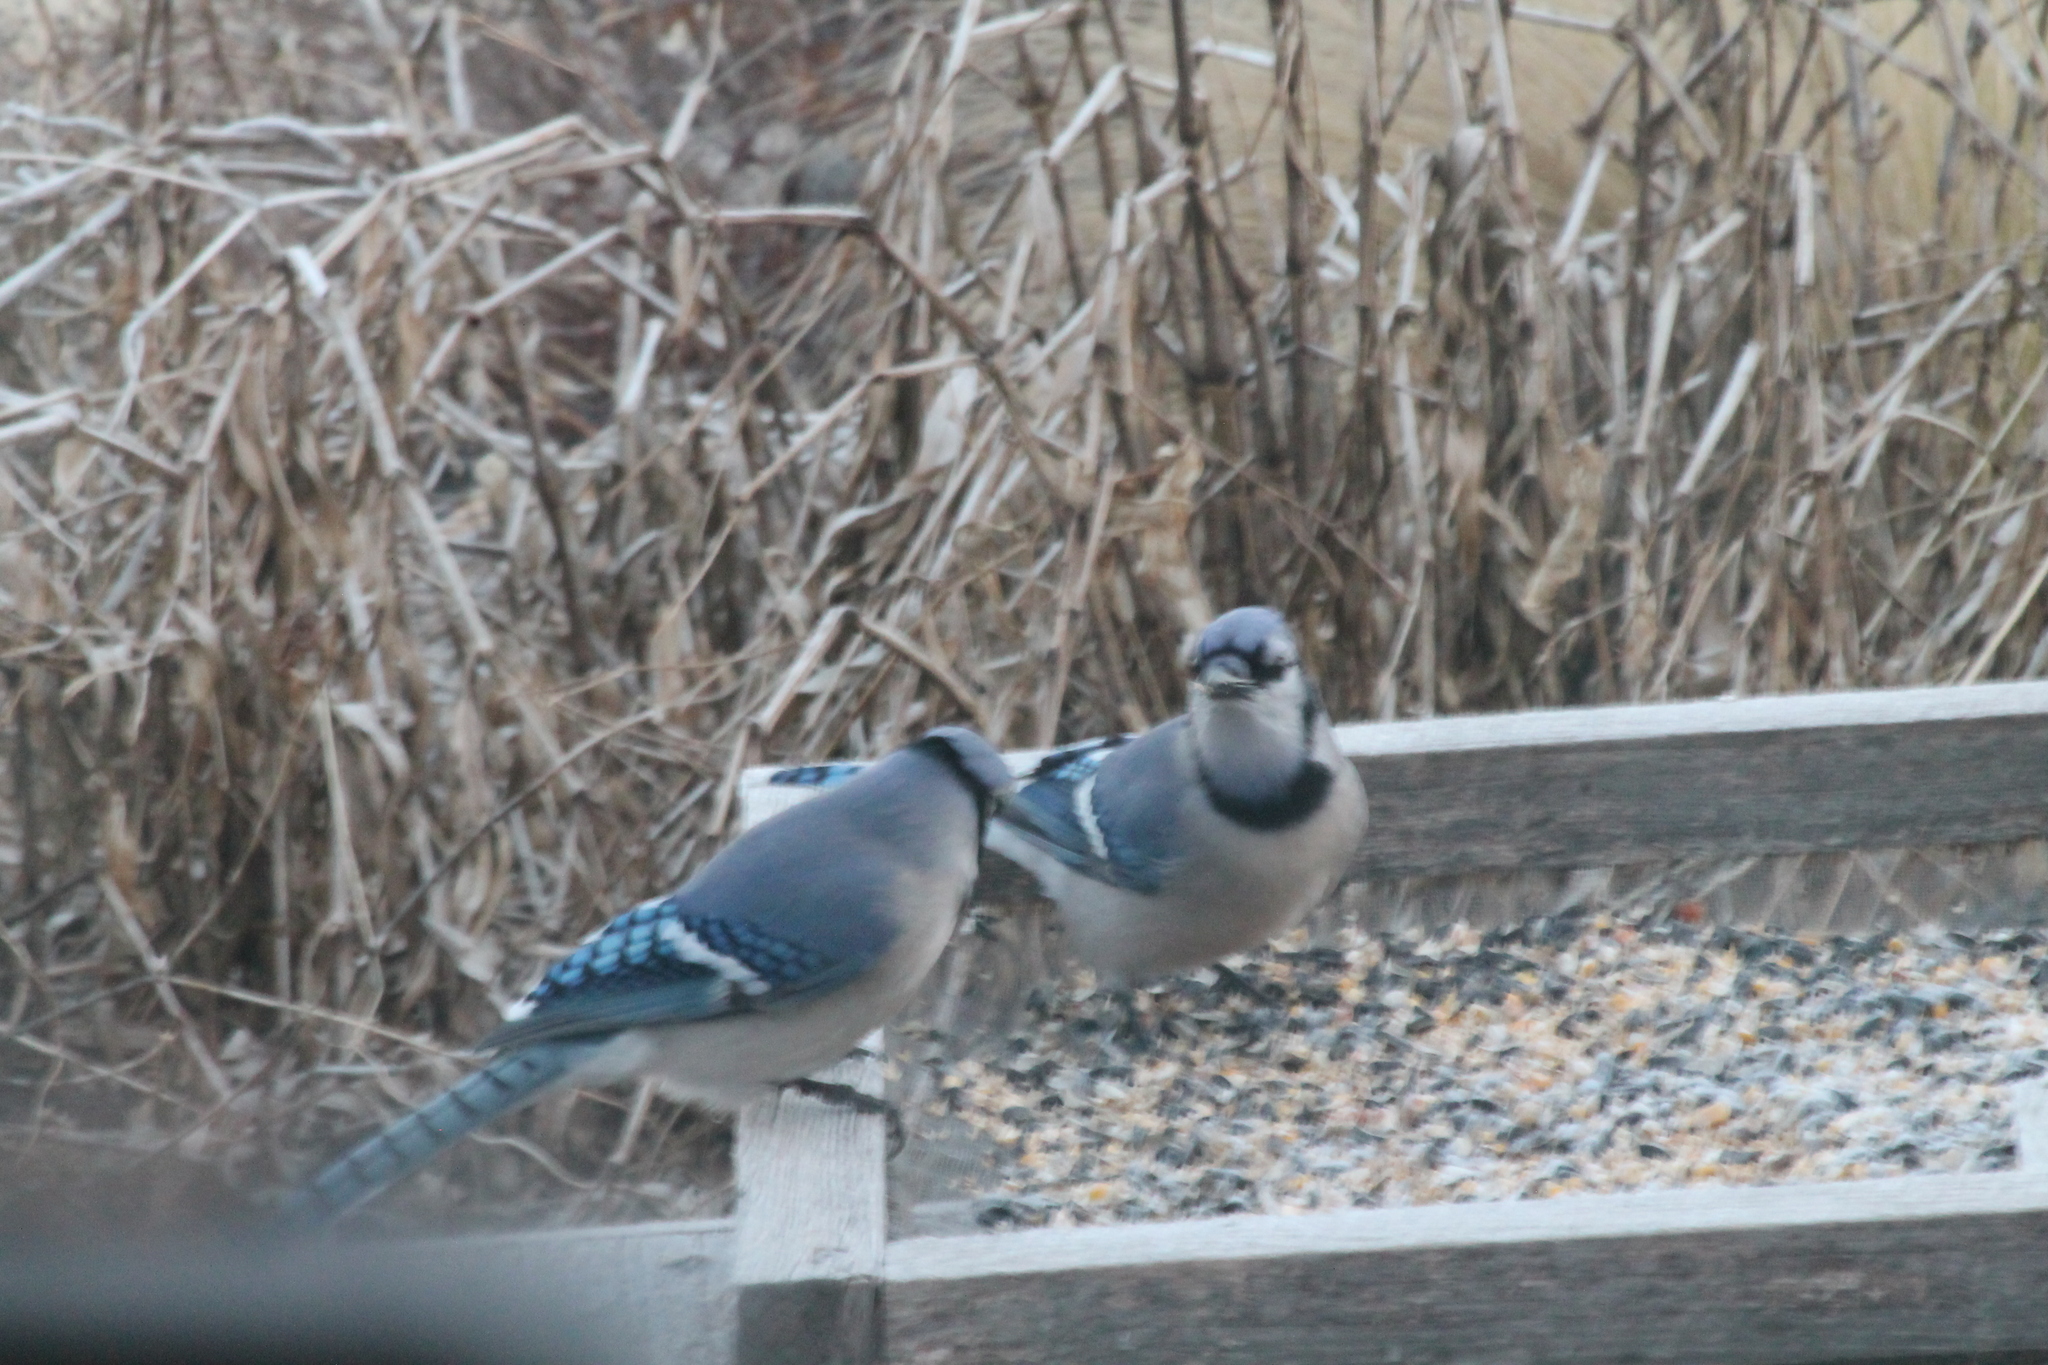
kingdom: Animalia
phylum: Chordata
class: Aves
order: Passeriformes
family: Corvidae
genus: Cyanocitta
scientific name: Cyanocitta cristata
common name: Blue jay
